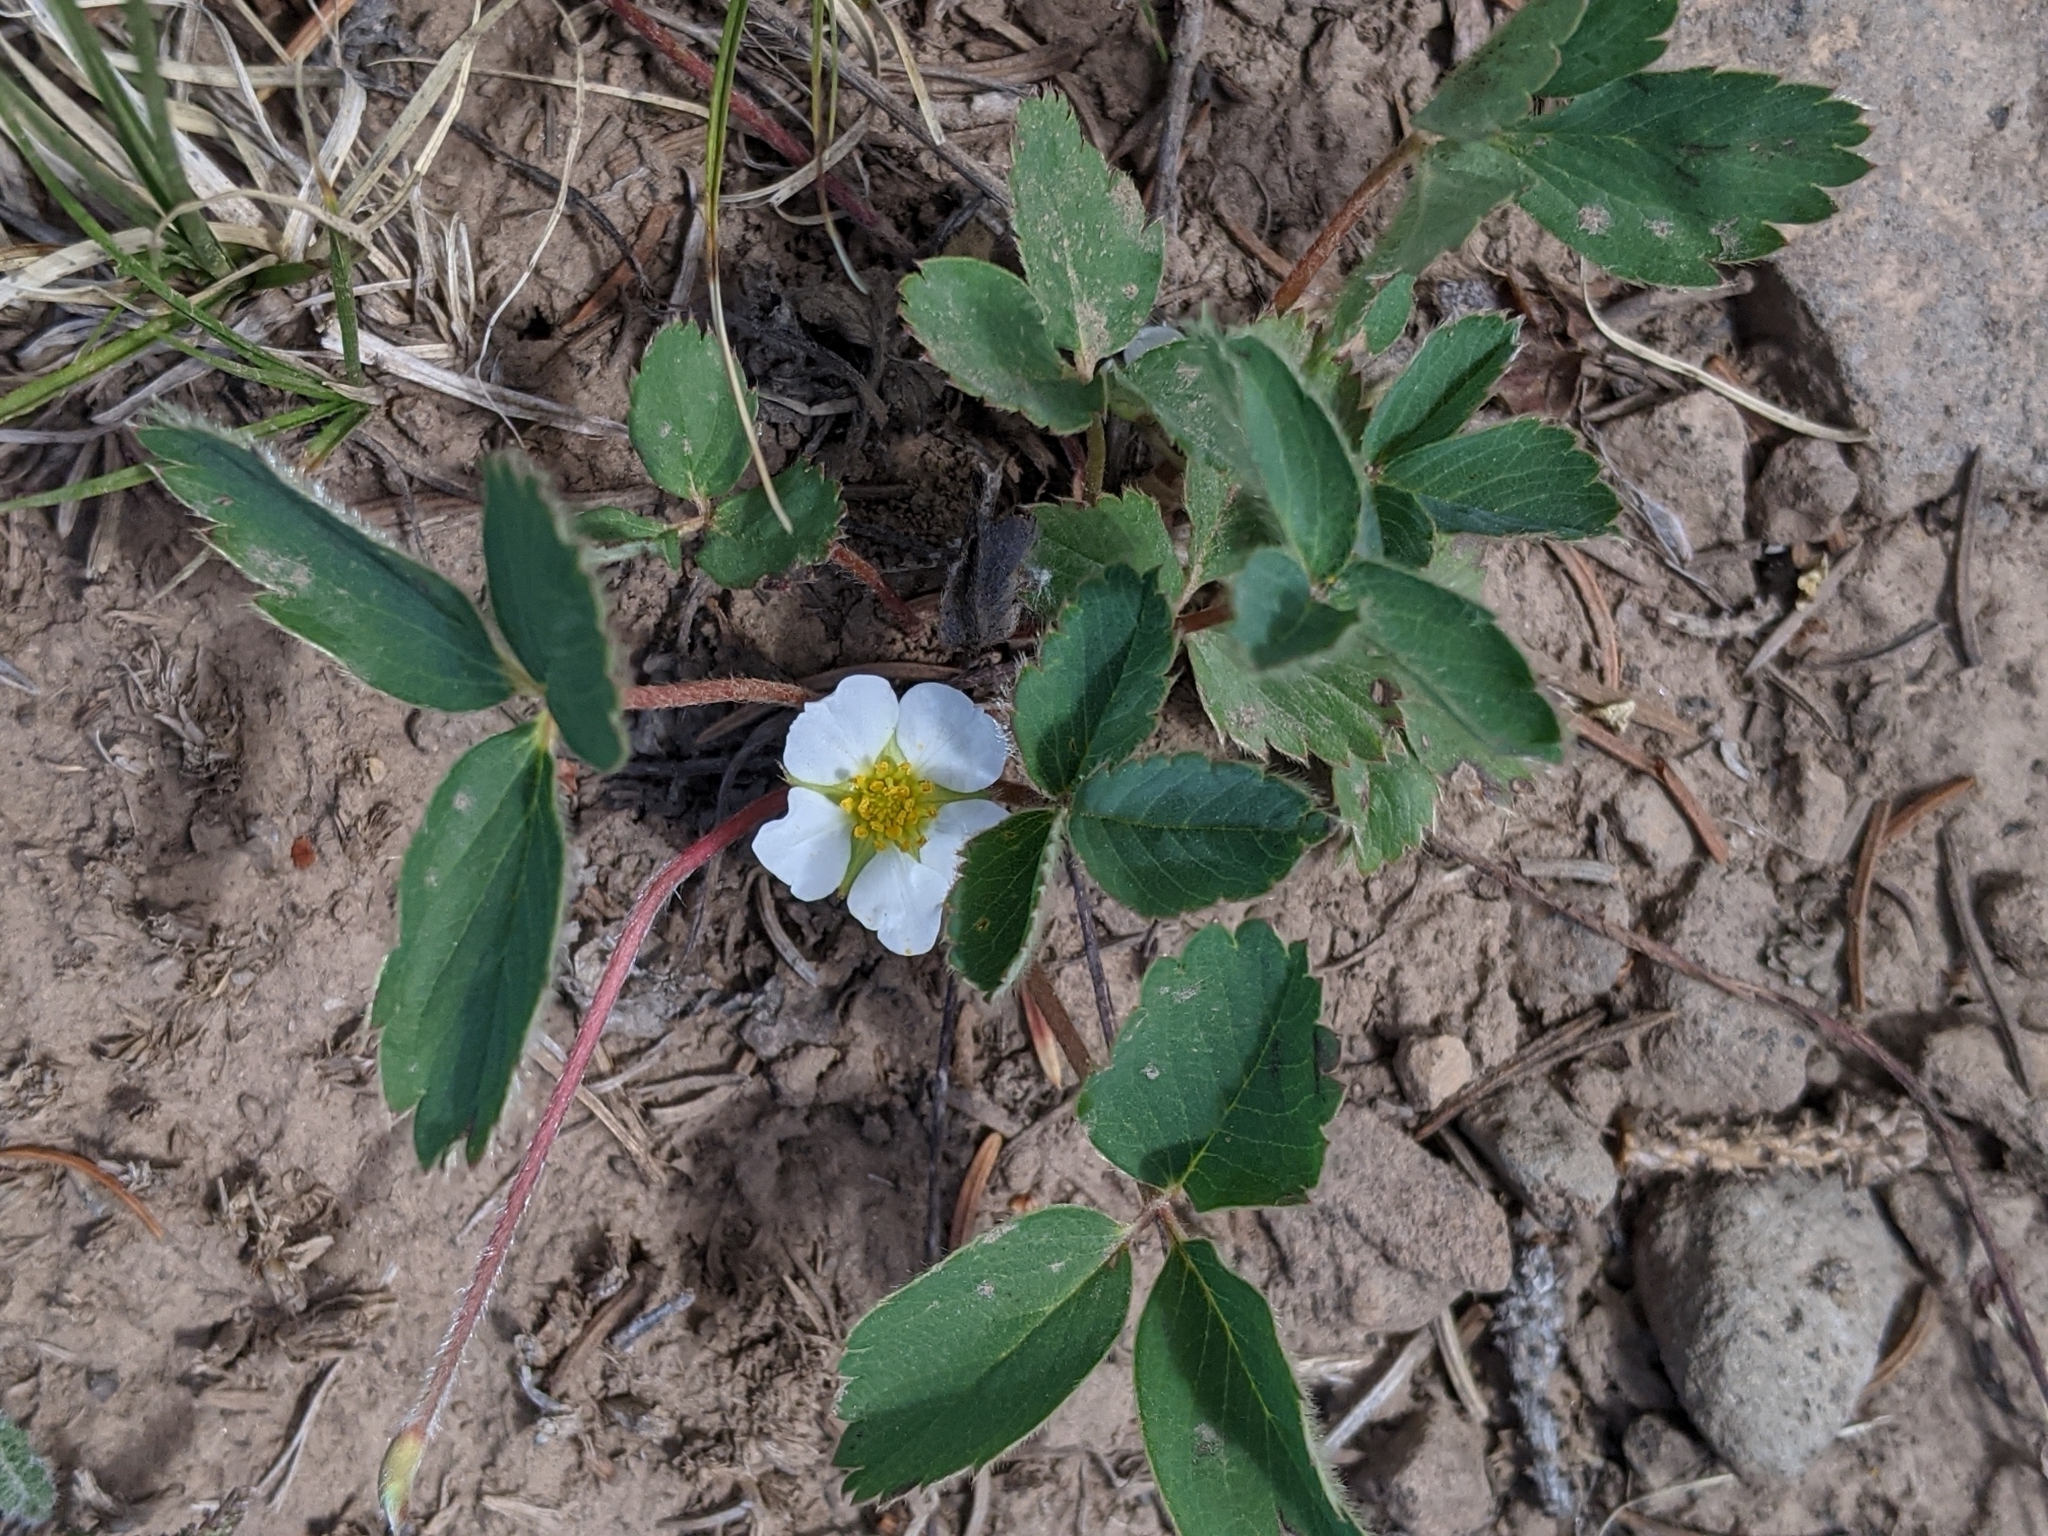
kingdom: Plantae
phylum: Tracheophyta
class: Magnoliopsida
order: Rosales
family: Rosaceae
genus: Fragaria
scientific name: Fragaria vesca
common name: Wild strawberry
